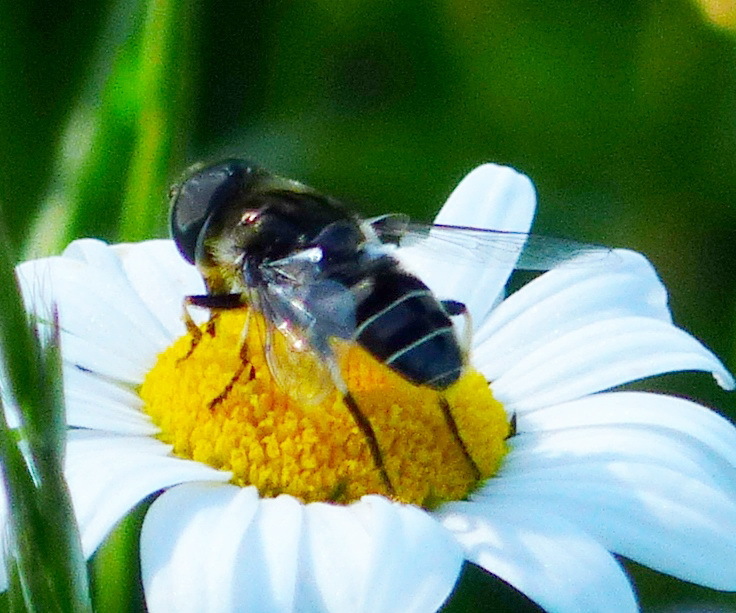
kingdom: Animalia
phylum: Arthropoda
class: Insecta
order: Diptera
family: Syrphidae
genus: Eristalis
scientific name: Eristalis dimidiata
